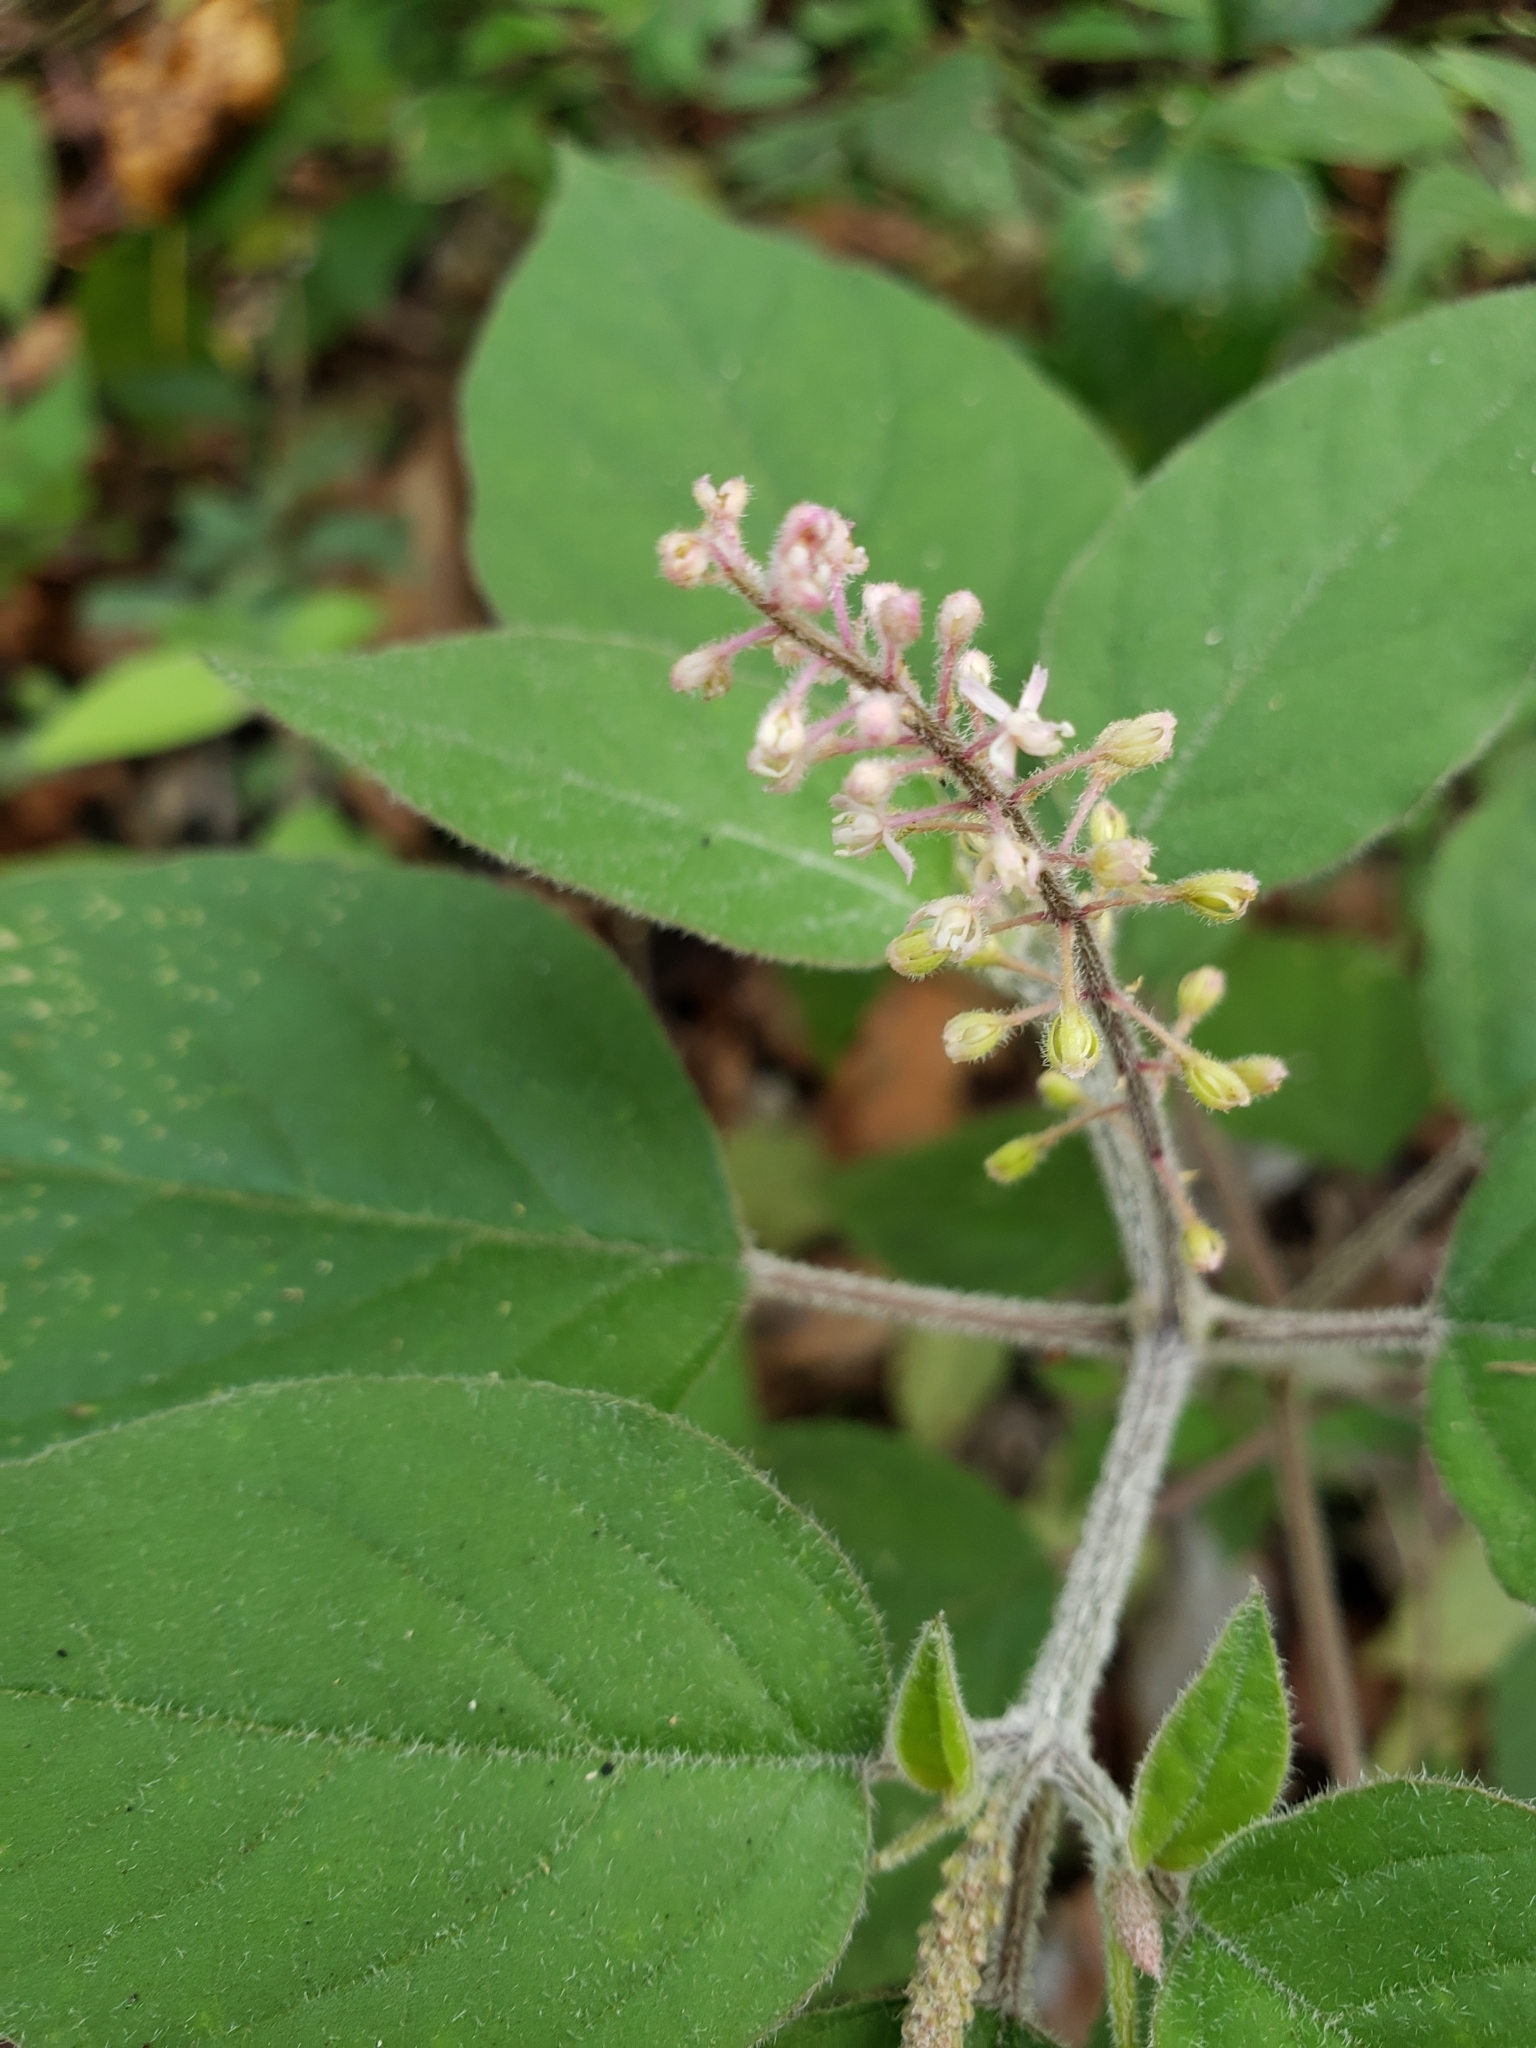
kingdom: Plantae
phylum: Tracheophyta
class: Magnoliopsida
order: Caryophyllales
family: Phytolaccaceae
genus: Rivina
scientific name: Rivina humilis
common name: Rougeplant
